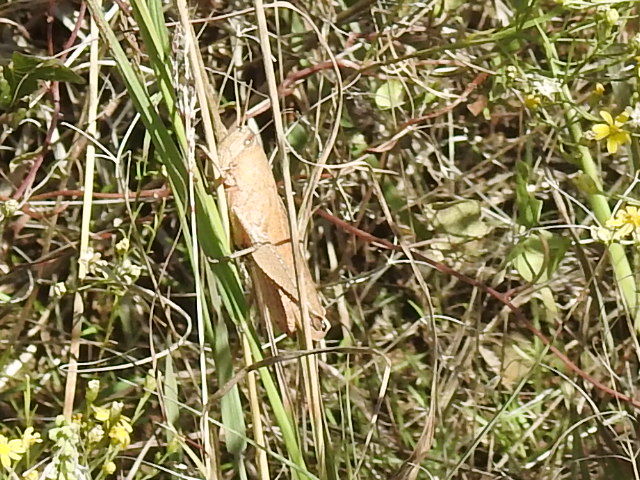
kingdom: Animalia
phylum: Arthropoda
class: Insecta
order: Orthoptera
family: Acrididae
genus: Schistocerca
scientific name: Schistocerca damnifica
